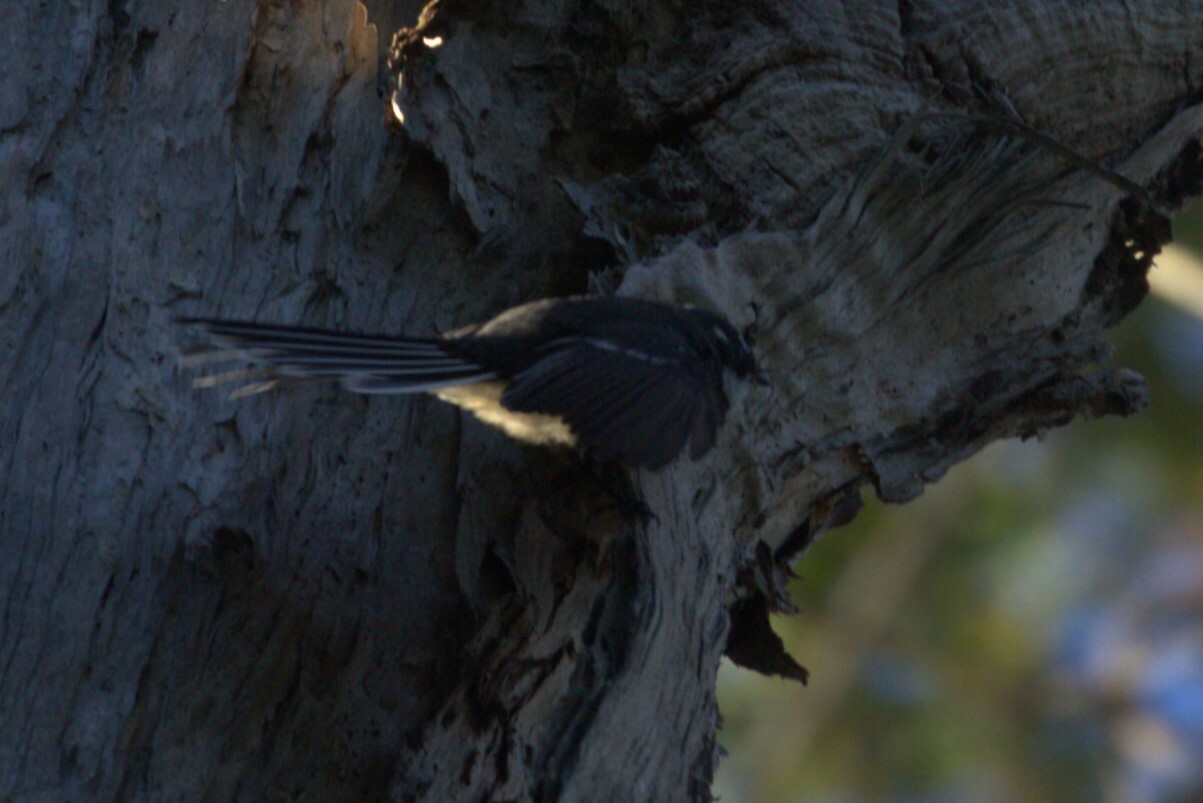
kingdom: Animalia
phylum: Chordata
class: Aves
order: Passeriformes
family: Rhipiduridae
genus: Rhipidura
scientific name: Rhipidura albiscapa
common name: Grey fantail
